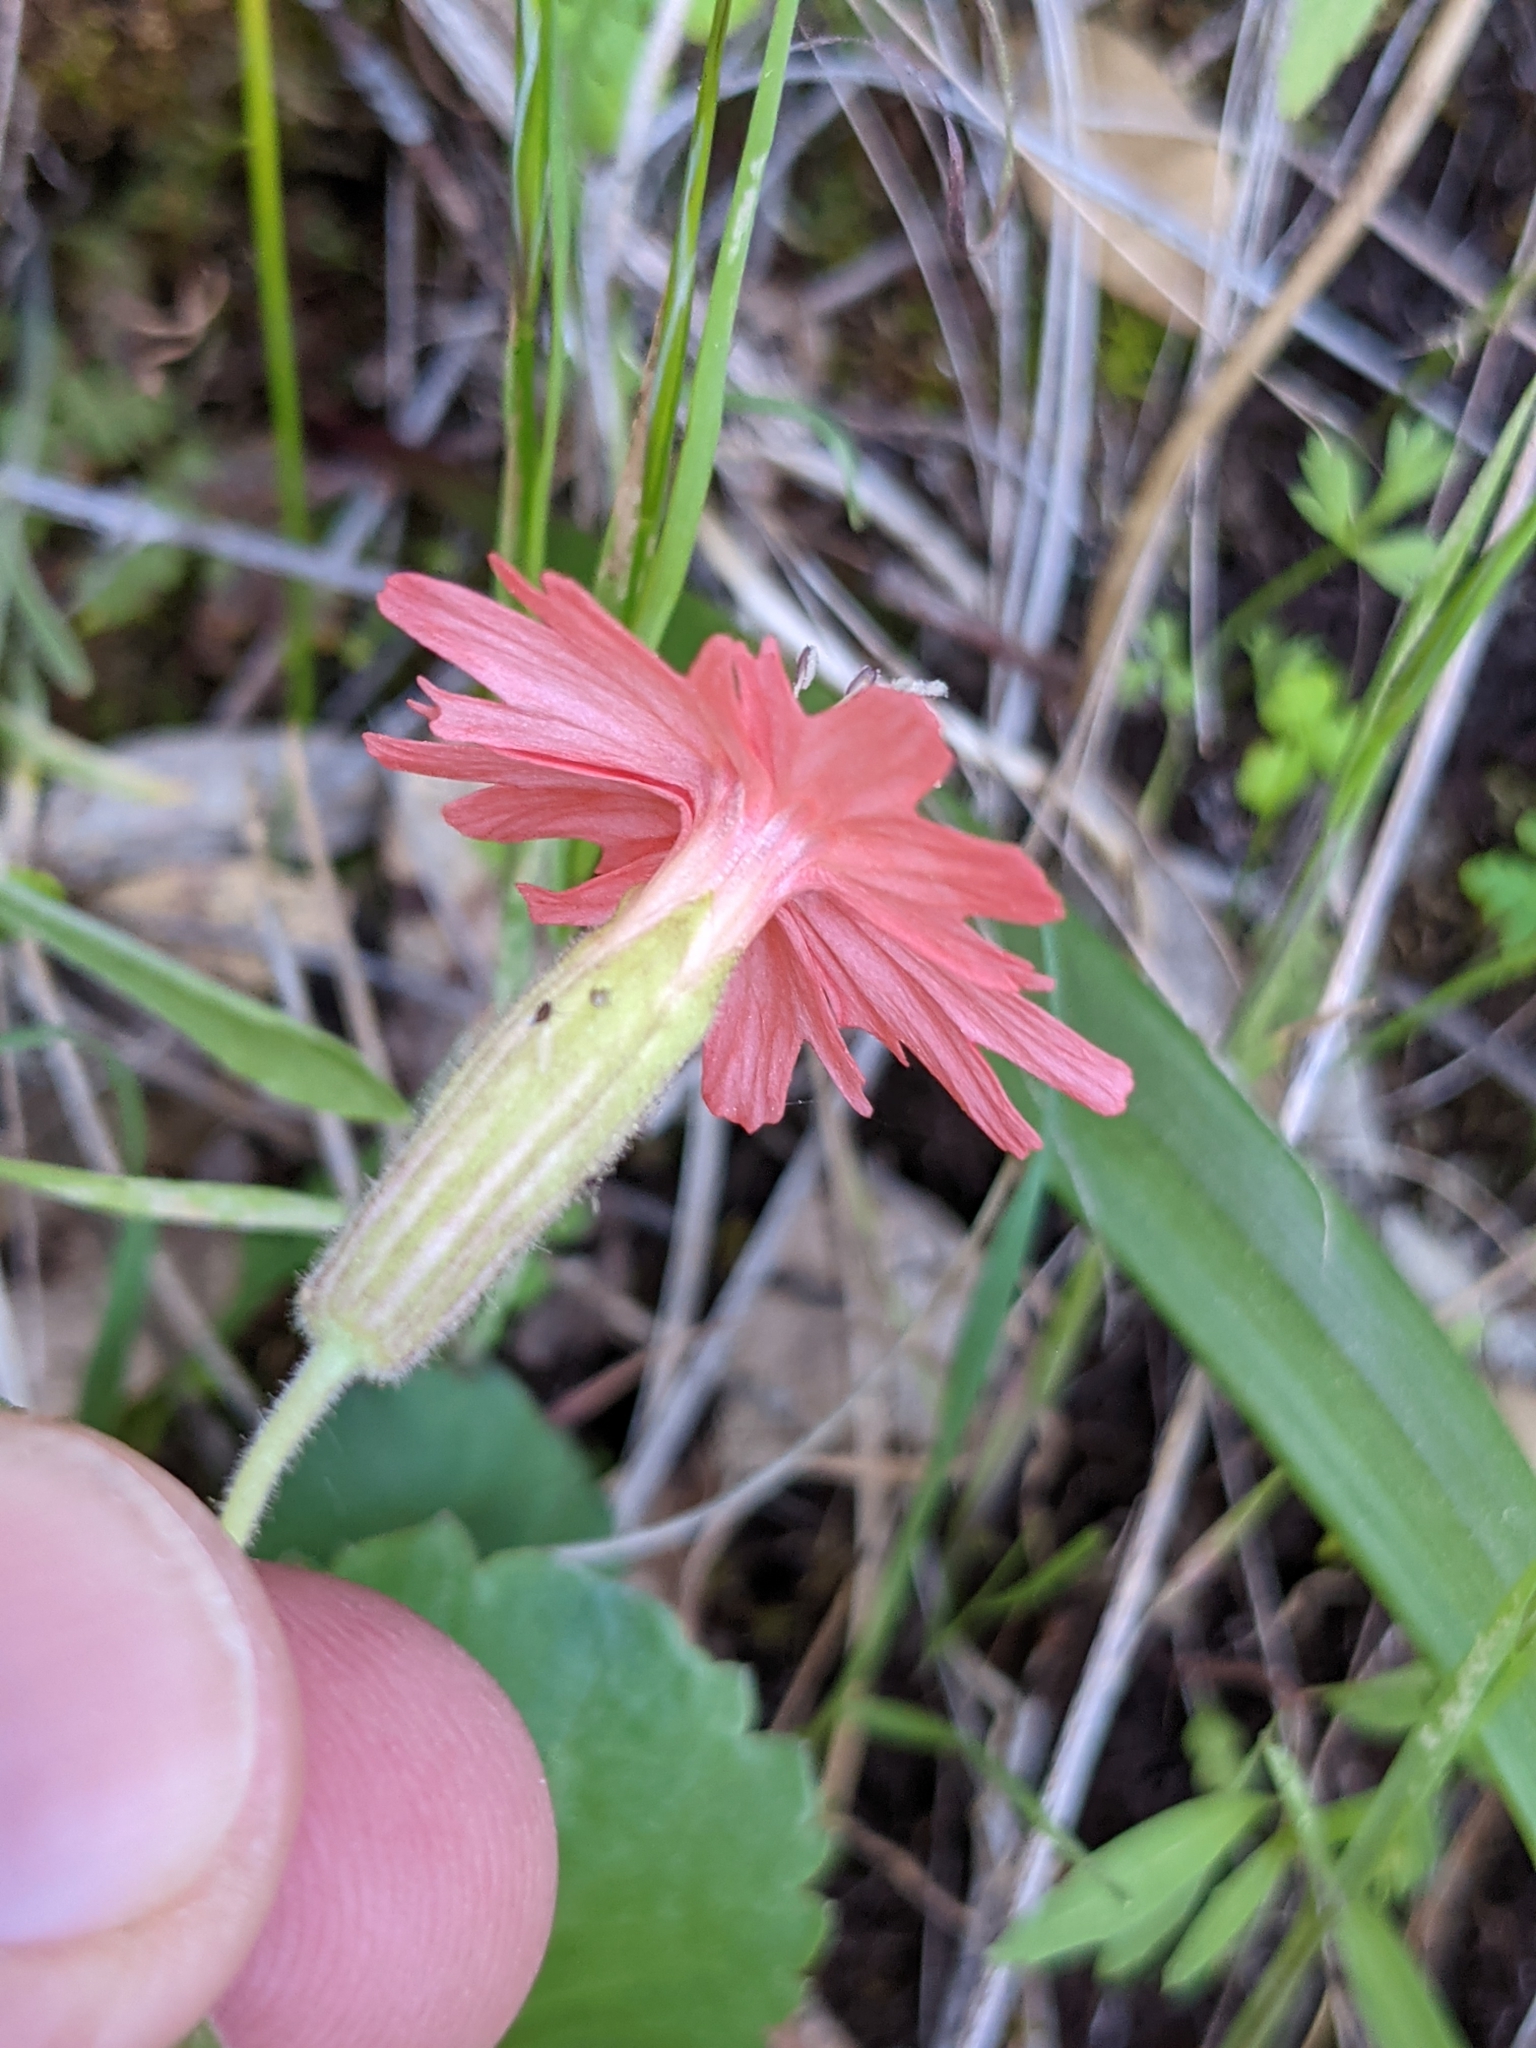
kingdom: Plantae
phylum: Tracheophyta
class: Magnoliopsida
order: Caryophyllales
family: Caryophyllaceae
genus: Silene
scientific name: Silene laciniata
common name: Indian-pink
